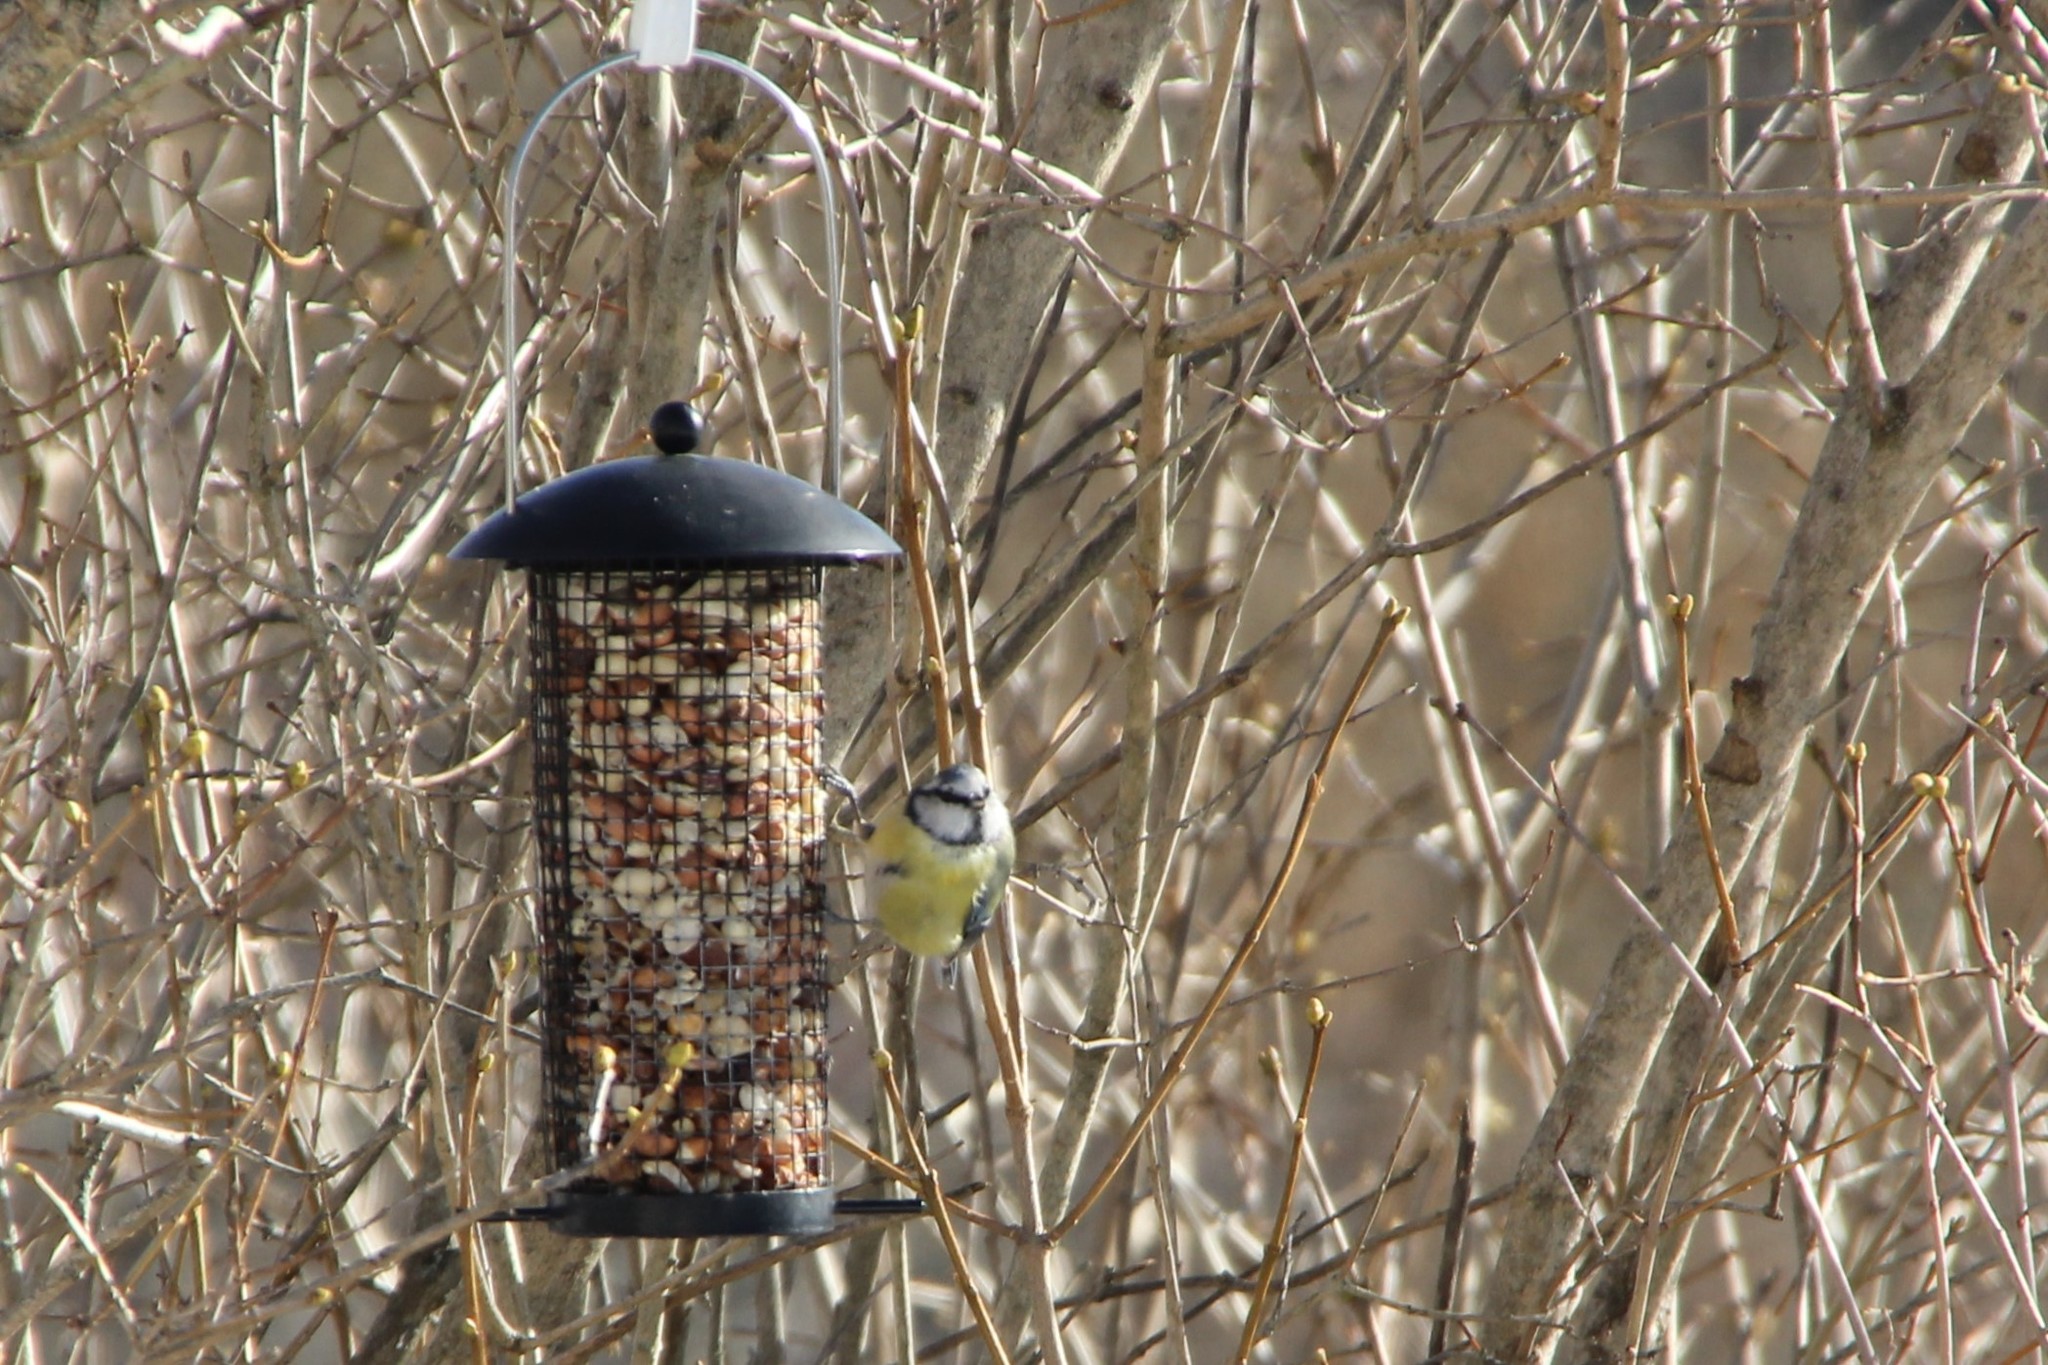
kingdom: Animalia
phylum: Chordata
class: Aves
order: Passeriformes
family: Paridae
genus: Cyanistes
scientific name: Cyanistes caeruleus
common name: Eurasian blue tit
